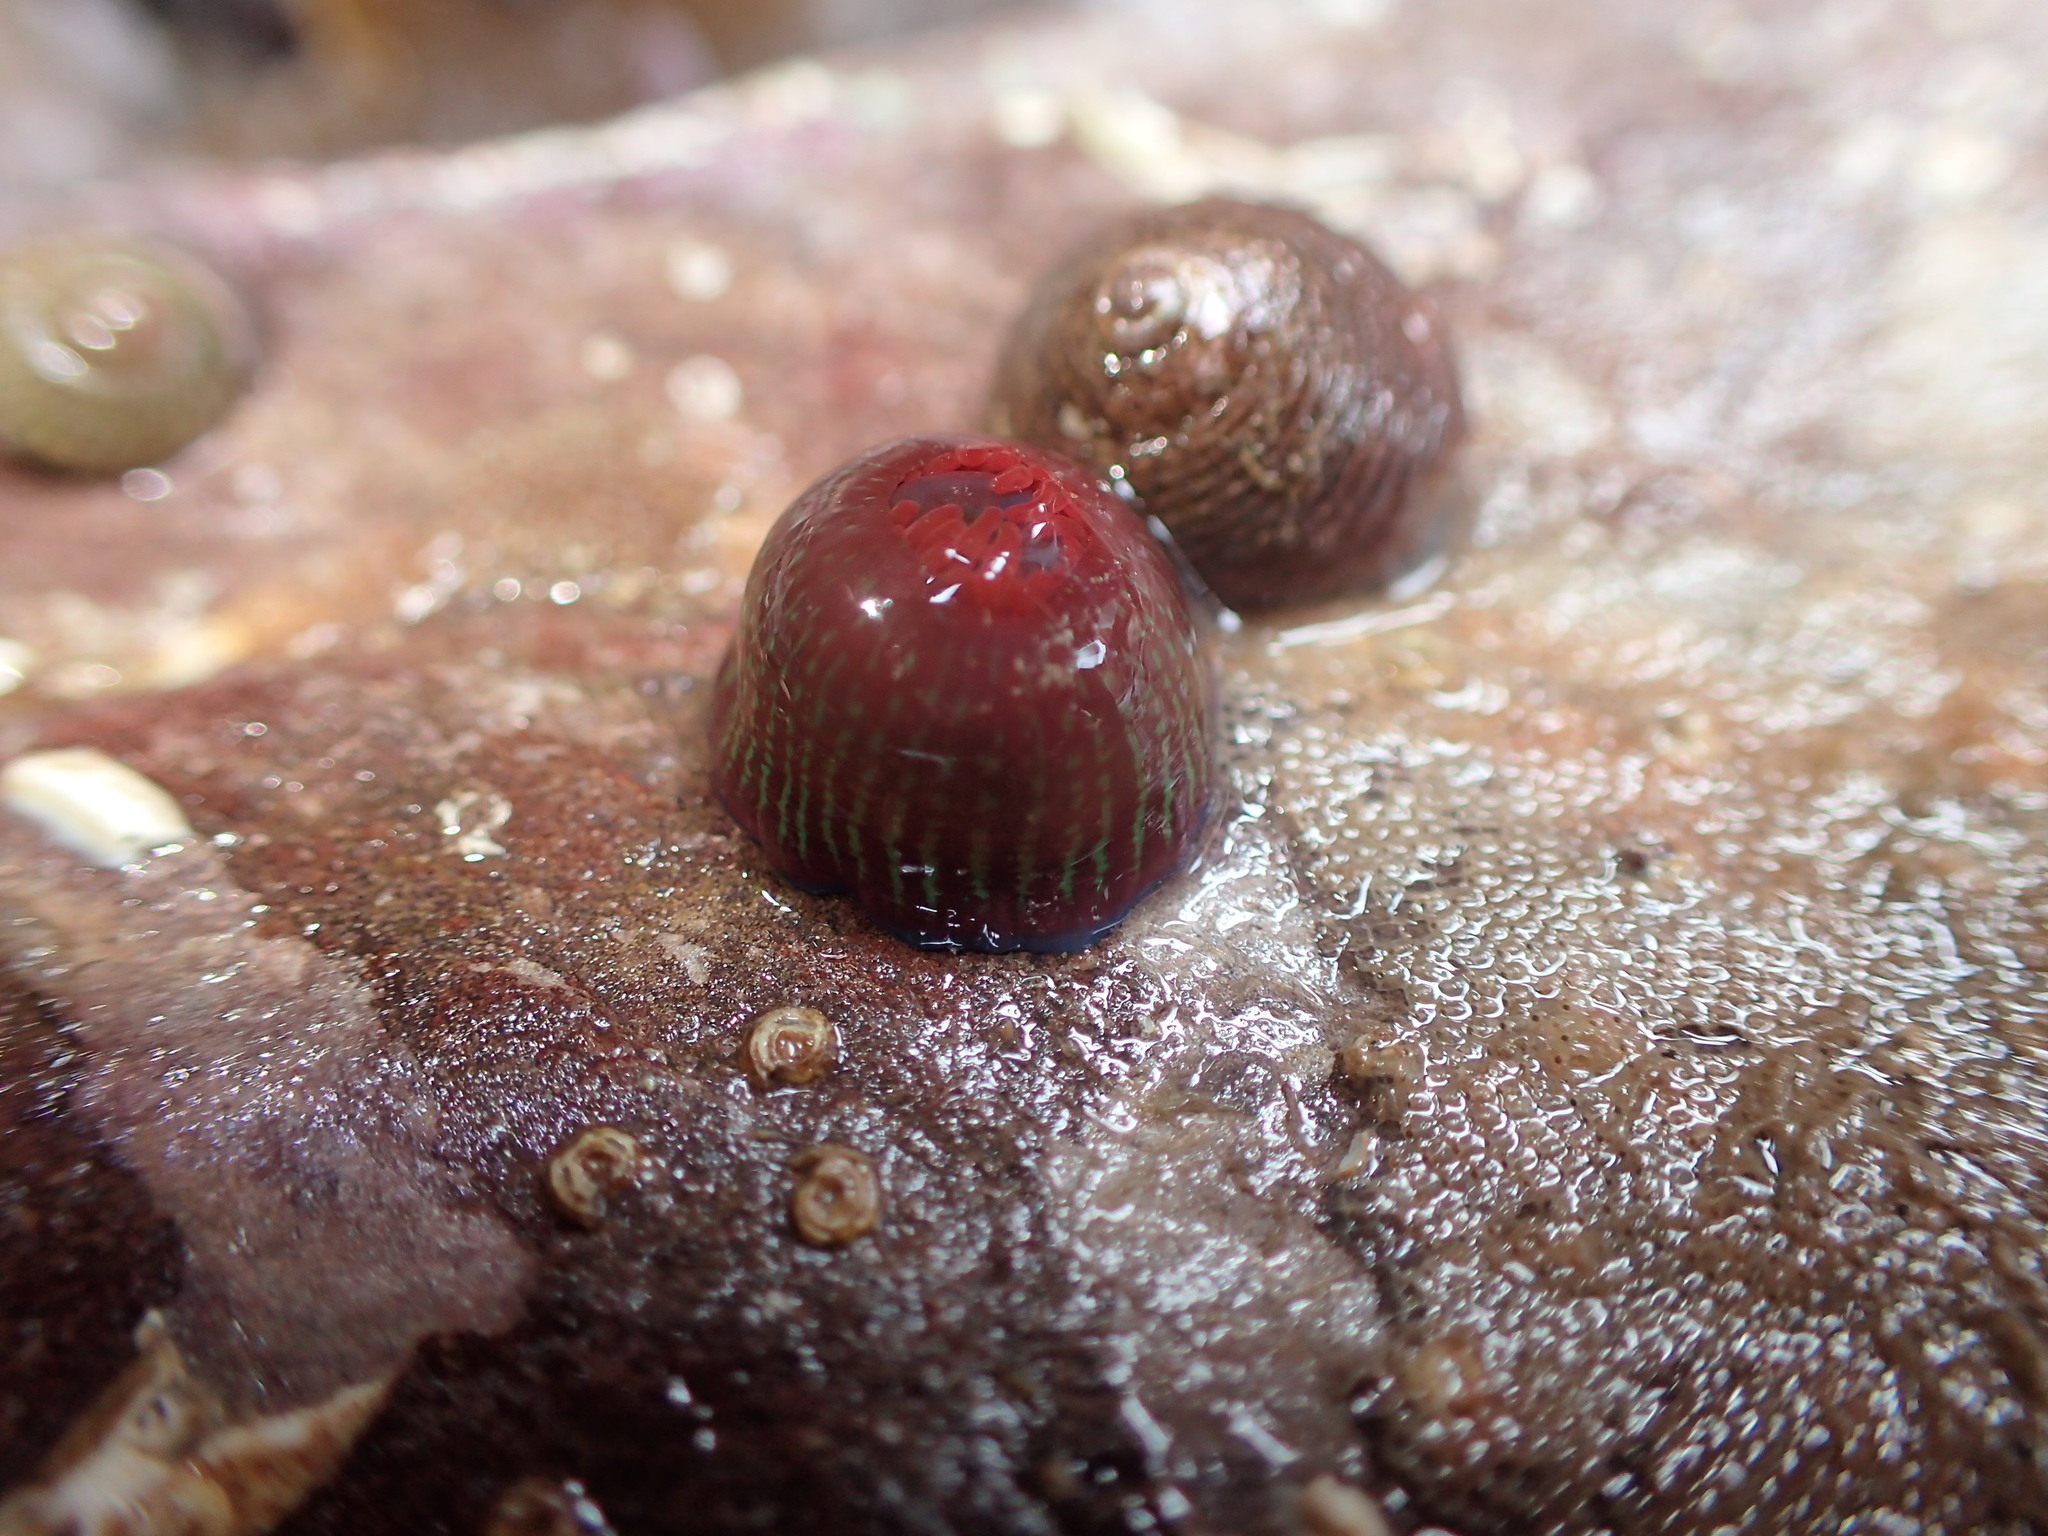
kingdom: Animalia
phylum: Cnidaria
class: Anthozoa
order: Actiniaria
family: Actiniidae
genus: Actinia
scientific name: Actinia equina
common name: Beadlet anemone
